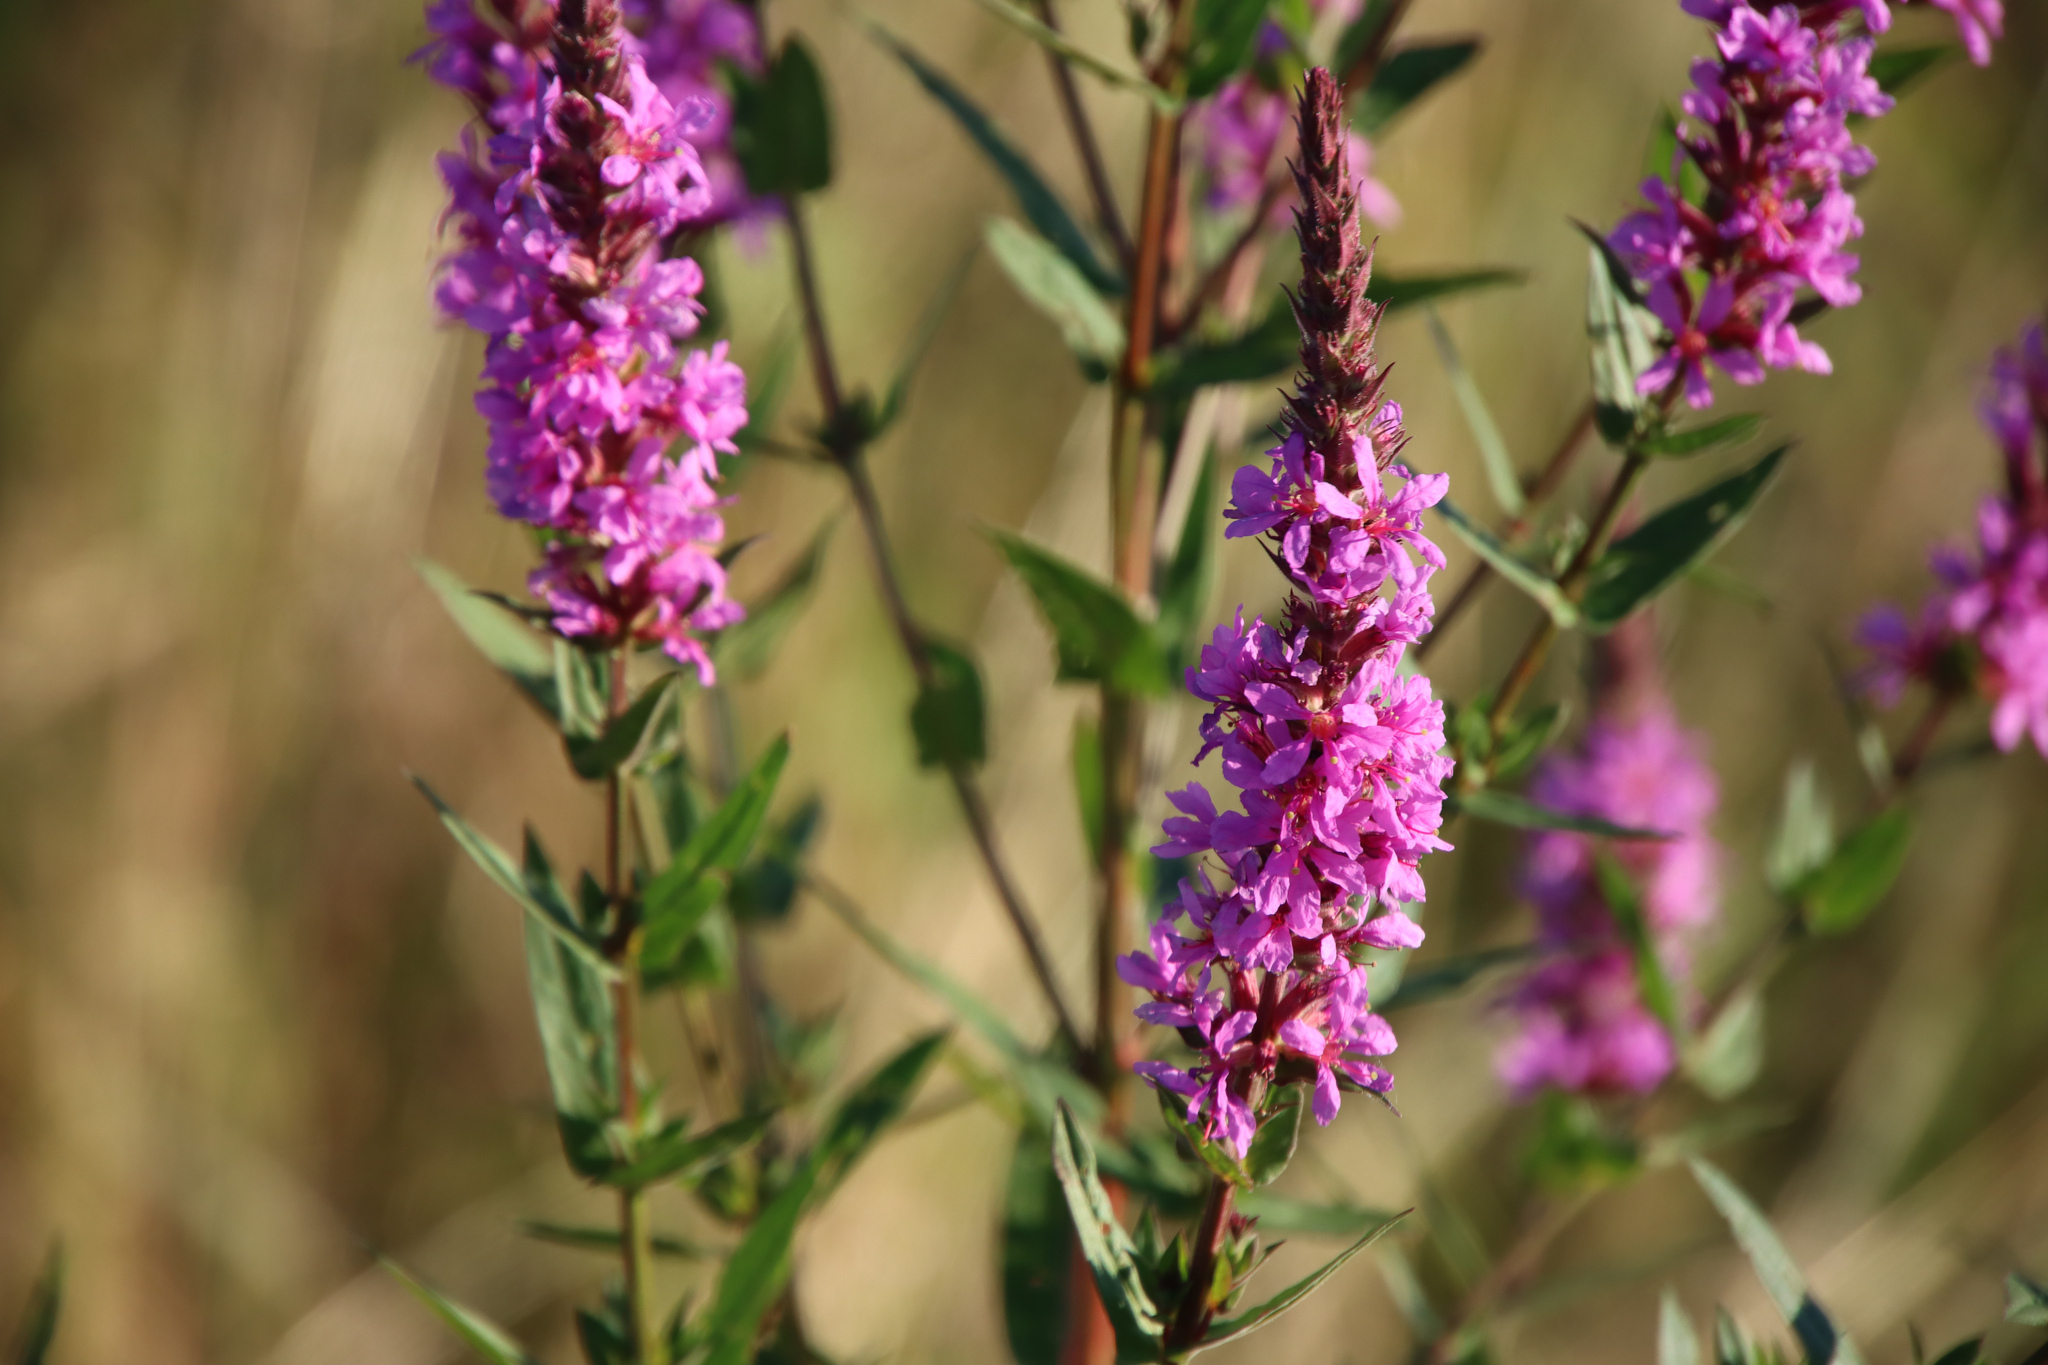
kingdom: Plantae
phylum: Tracheophyta
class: Magnoliopsida
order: Myrtales
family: Lythraceae
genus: Lythrum
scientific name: Lythrum salicaria
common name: Purple loosestrife
